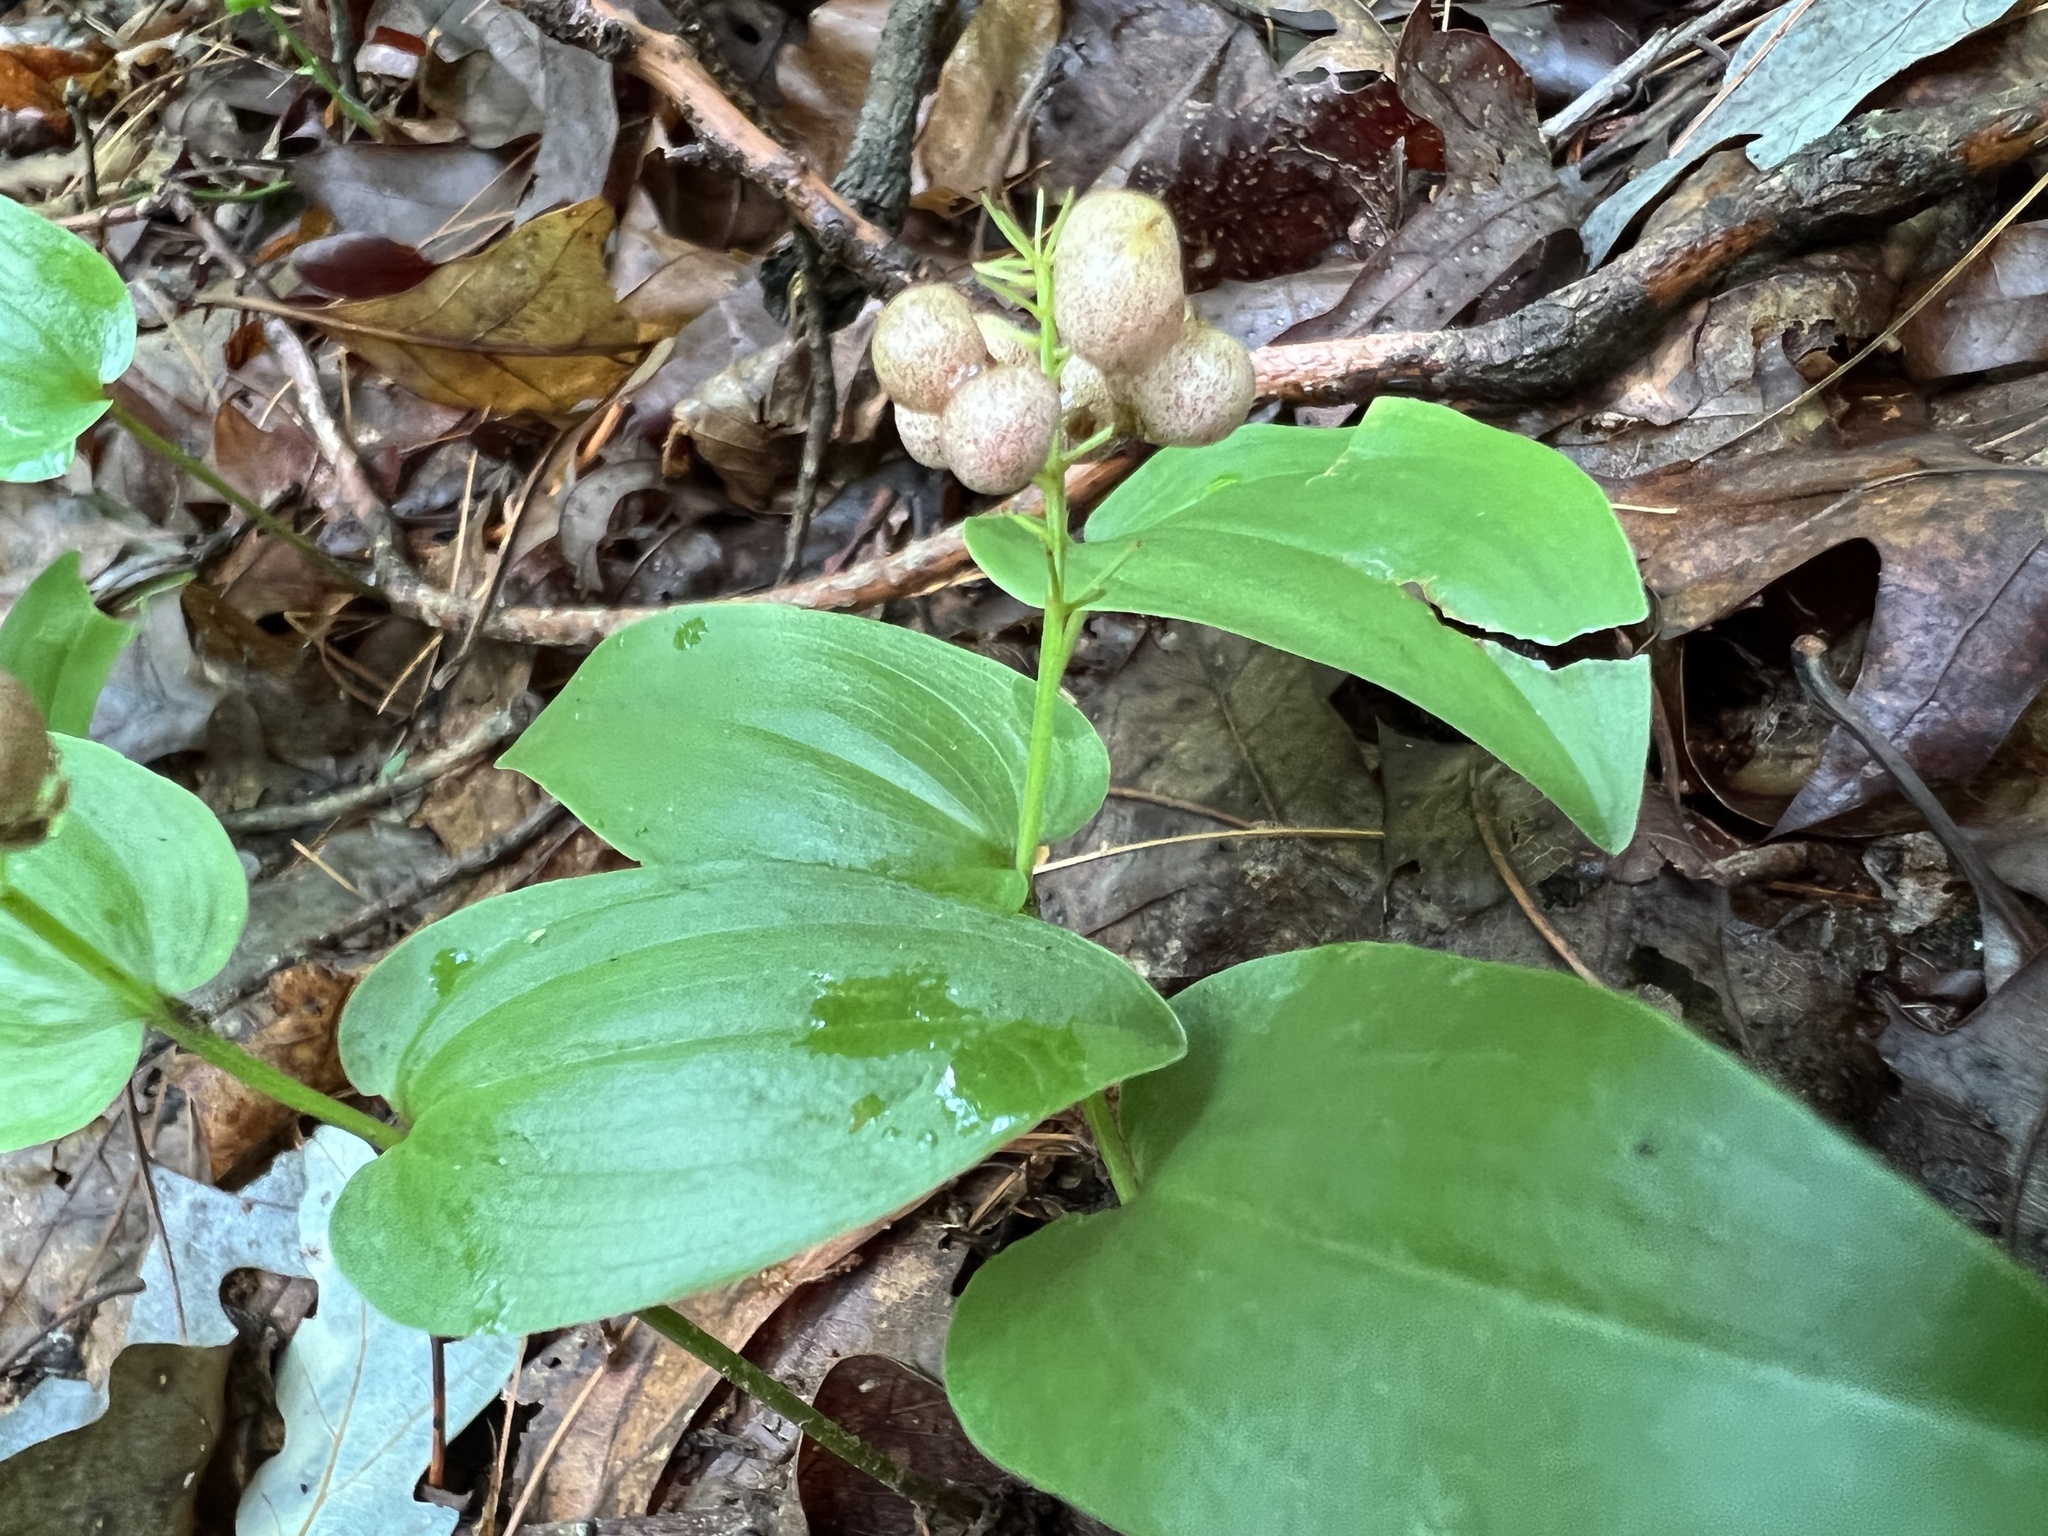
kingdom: Plantae
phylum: Tracheophyta
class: Liliopsida
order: Asparagales
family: Asparagaceae
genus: Maianthemum
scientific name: Maianthemum canadense
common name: False lily-of-the-valley
